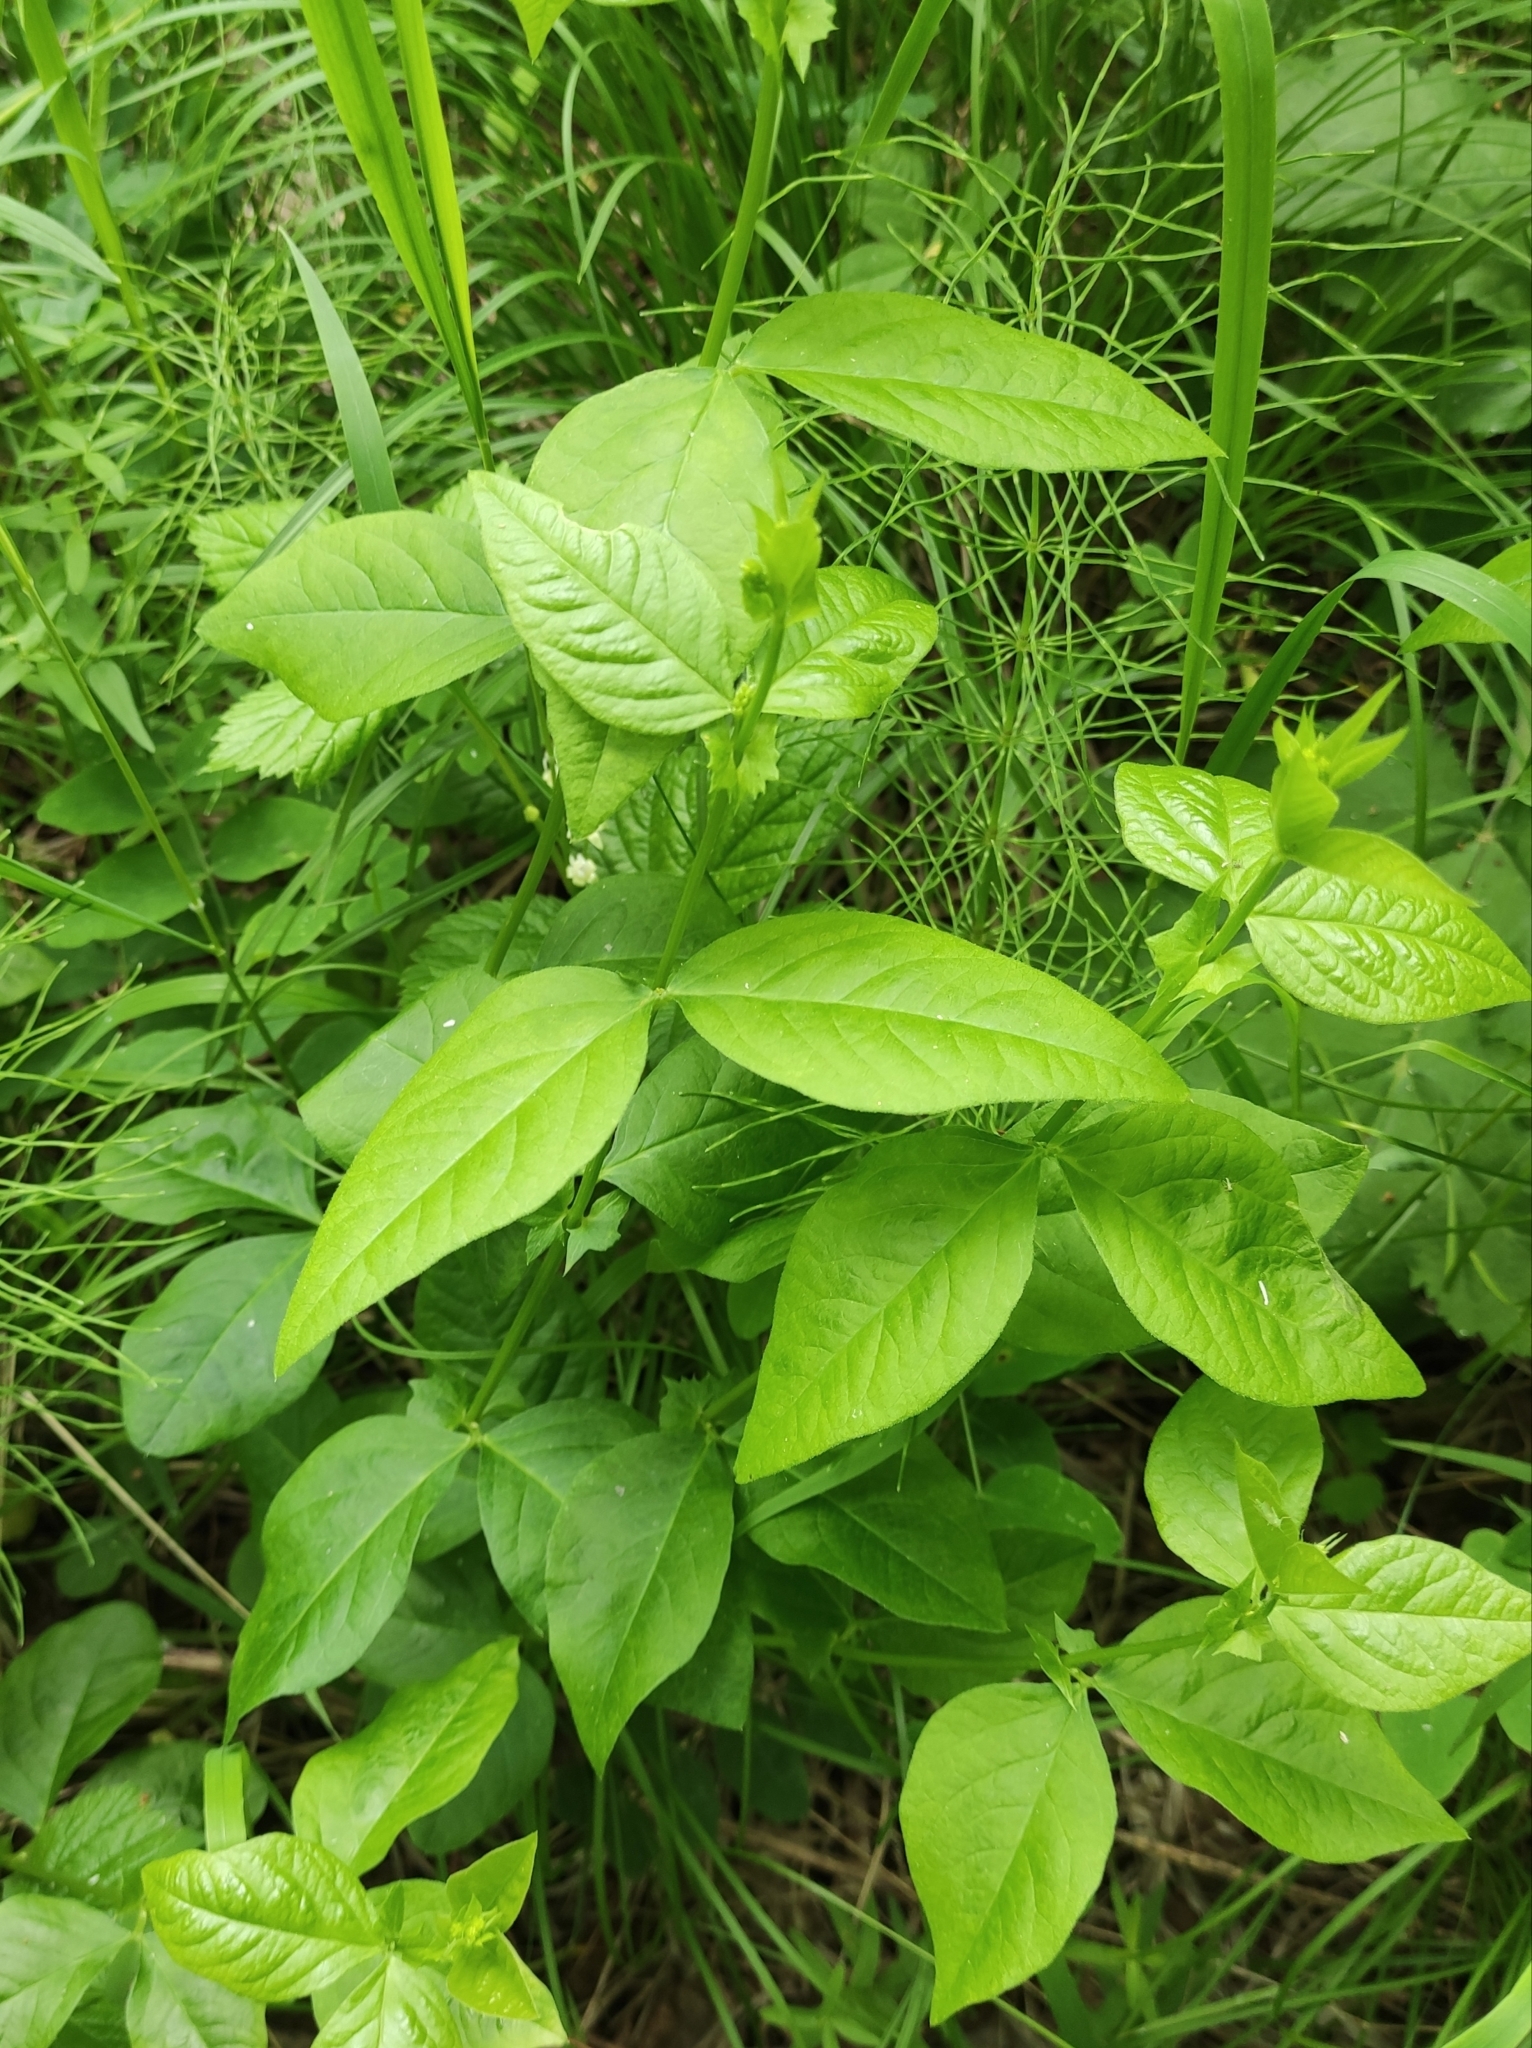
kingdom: Plantae
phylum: Tracheophyta
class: Magnoliopsida
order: Fabales
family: Fabaceae
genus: Vicia
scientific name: Vicia unijuga
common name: Two-leaf vetch
